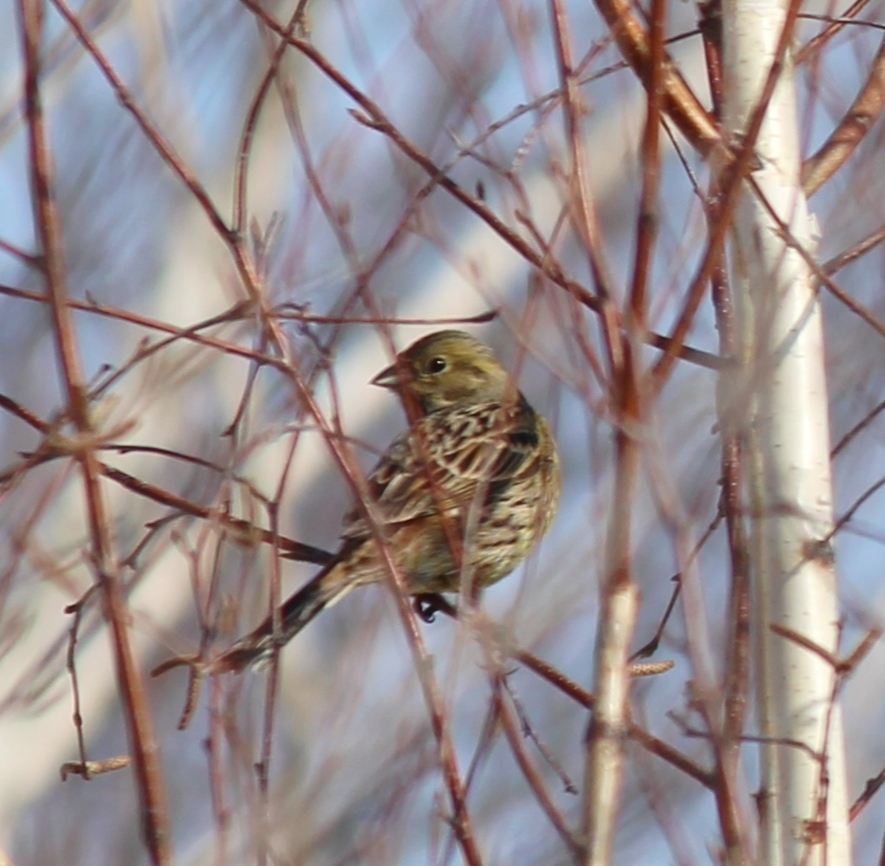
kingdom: Animalia
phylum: Chordata
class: Aves
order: Passeriformes
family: Emberizidae
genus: Emberiza
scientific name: Emberiza citrinella
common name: Yellowhammer
